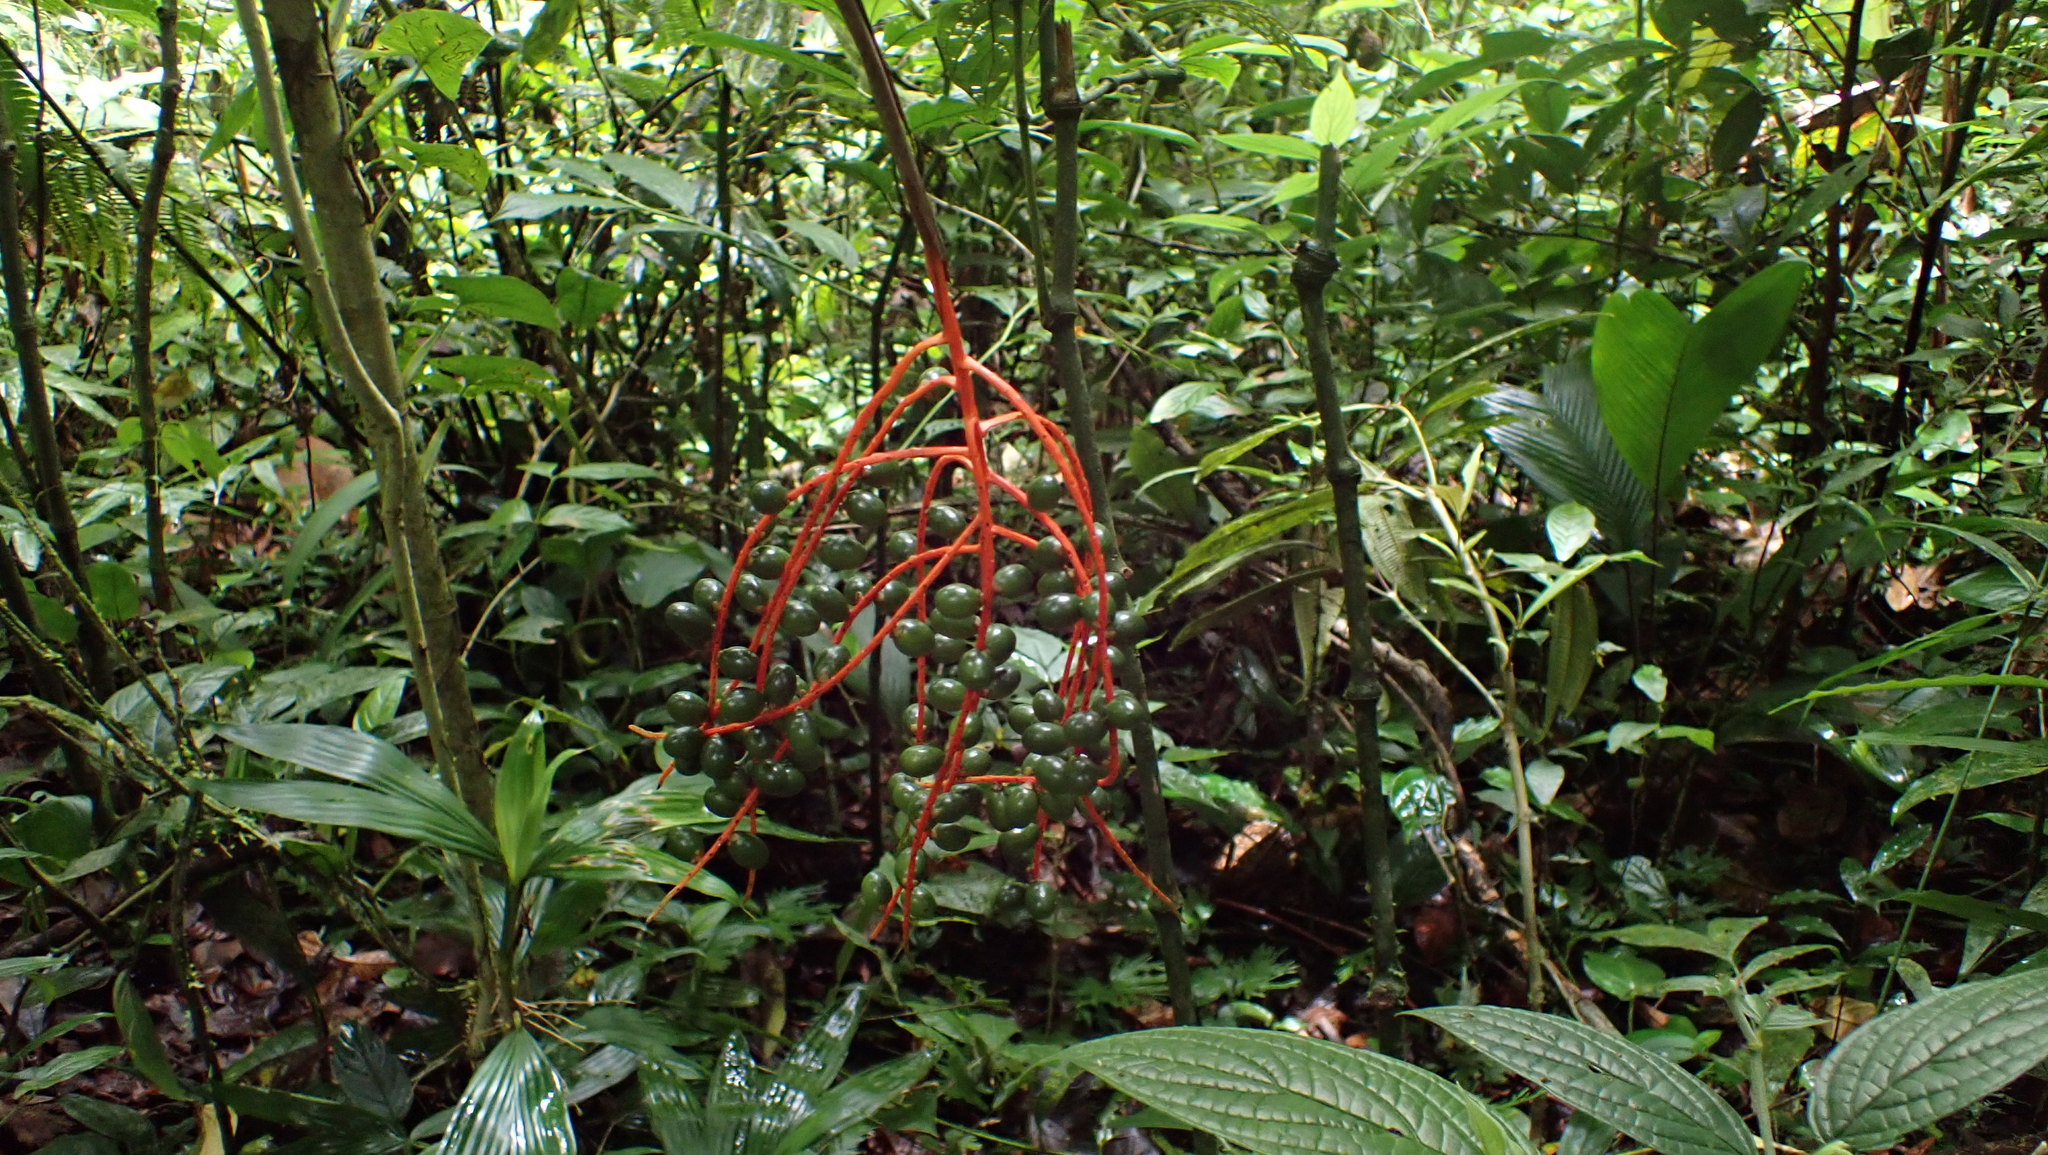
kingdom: Plantae
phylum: Tracheophyta
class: Liliopsida
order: Arecales
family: Arecaceae
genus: Chamaedorea
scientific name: Chamaedorea tepejilote
